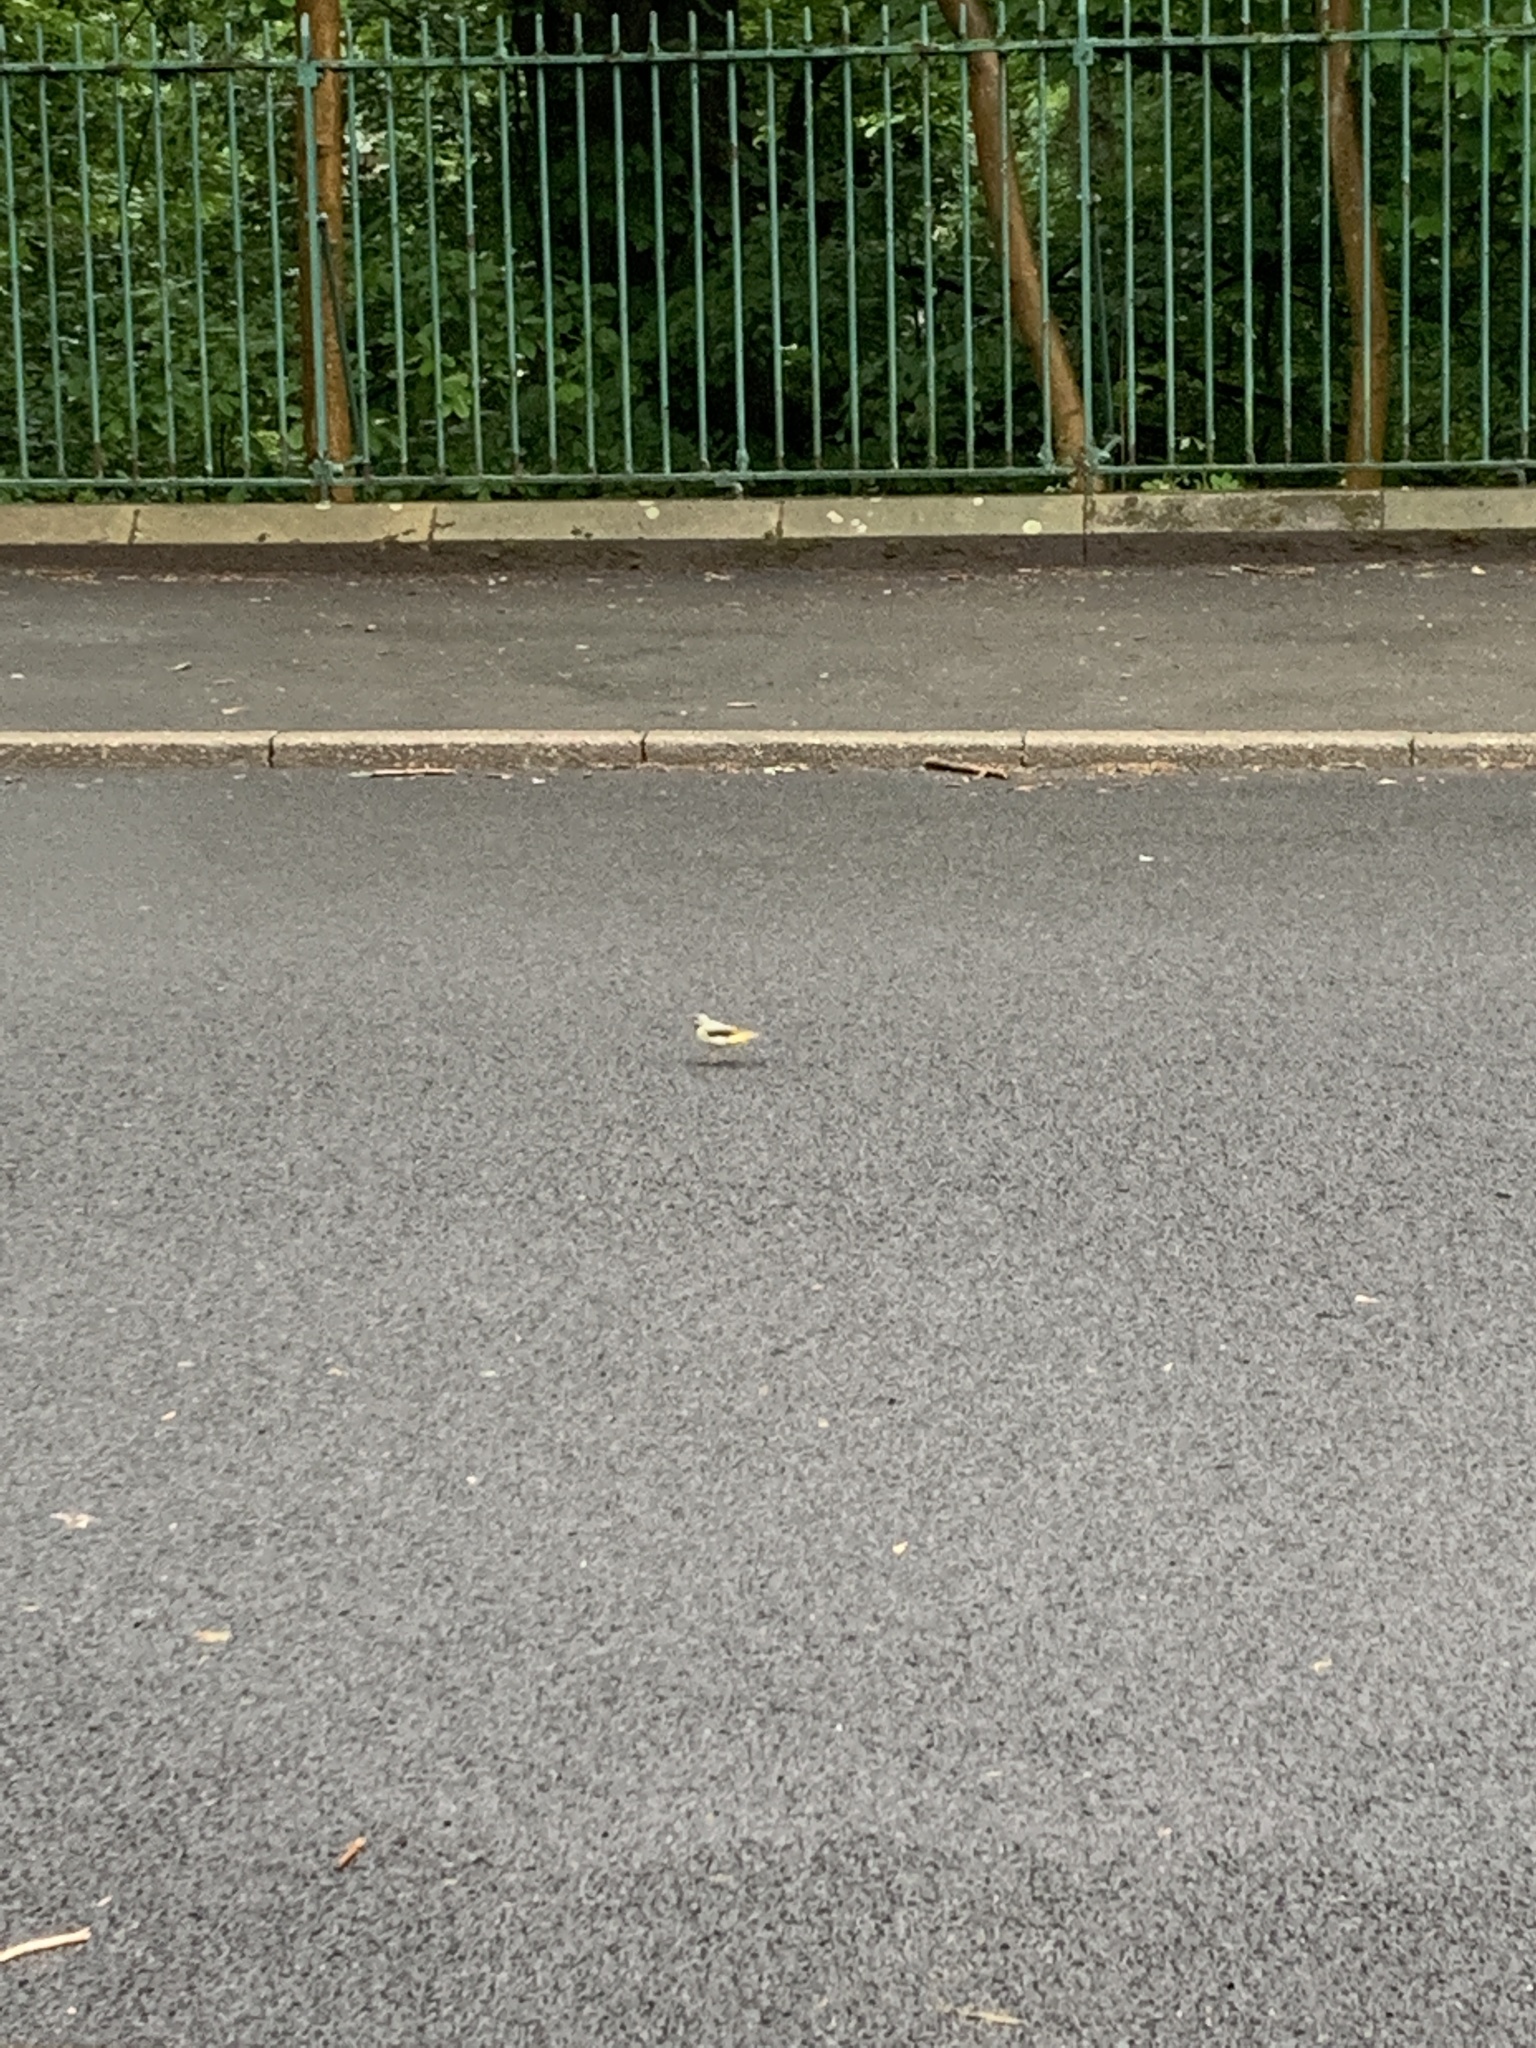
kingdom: Animalia
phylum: Chordata
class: Aves
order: Passeriformes
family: Motacillidae
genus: Motacilla
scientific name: Motacilla cinerea
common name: Grey wagtail
